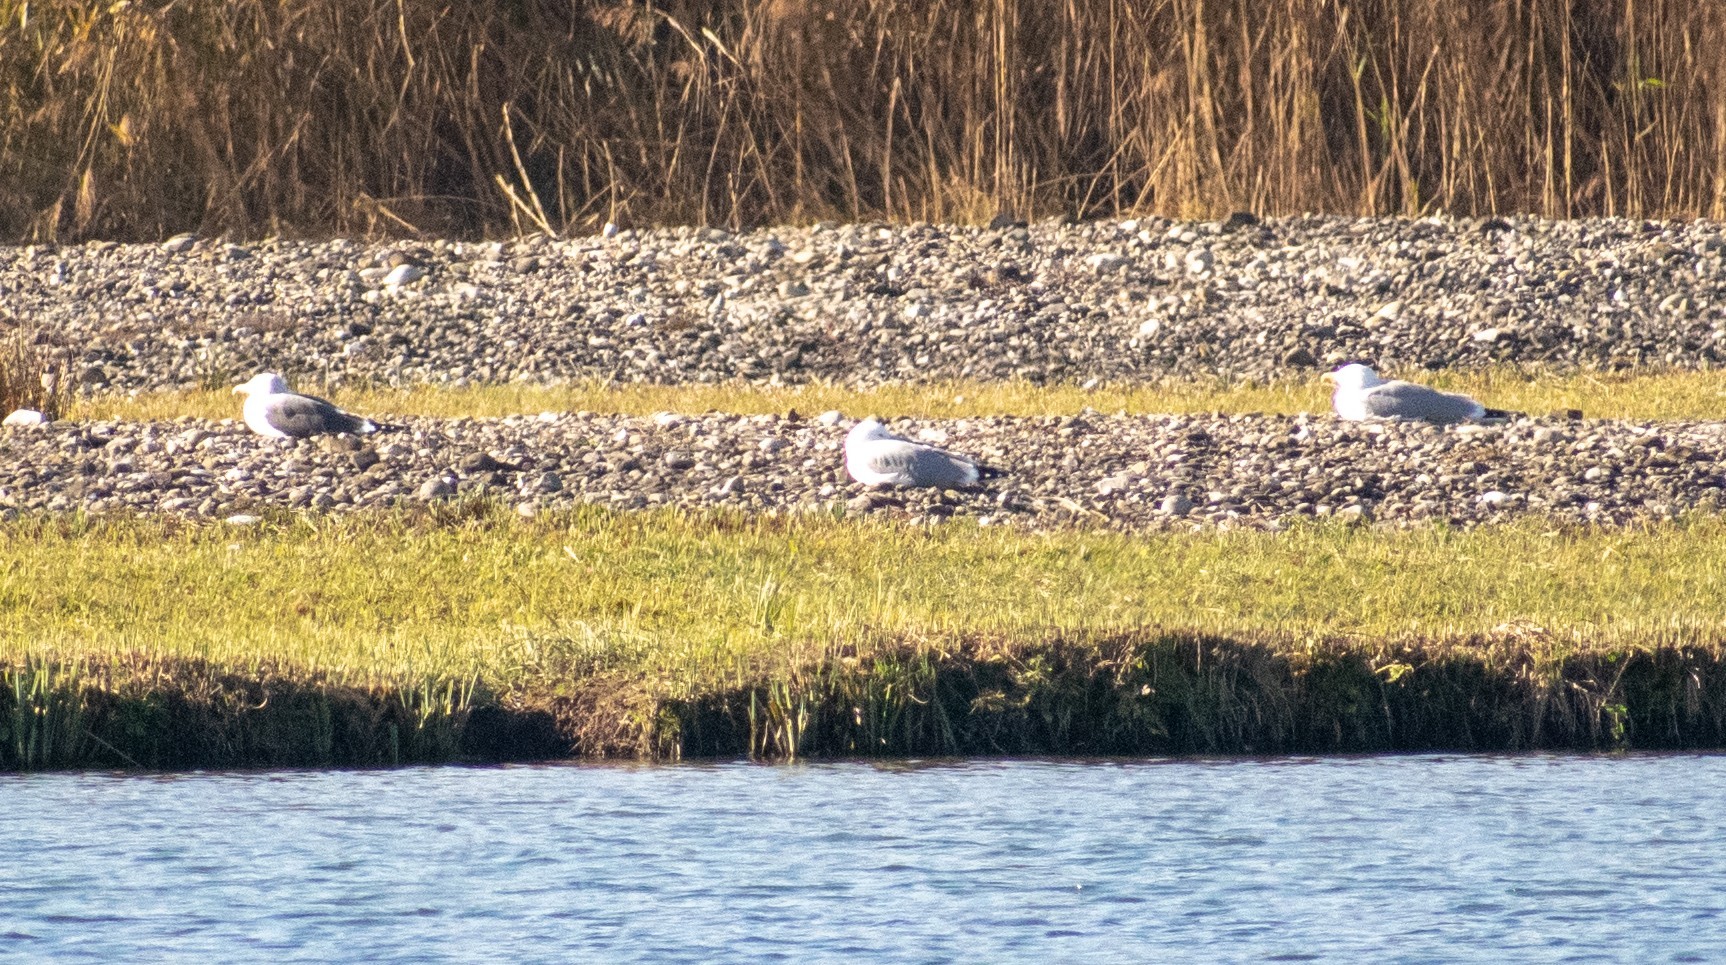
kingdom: Animalia
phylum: Chordata
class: Aves
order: Charadriiformes
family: Laridae
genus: Larus
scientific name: Larus fuscus
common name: Lesser black-backed gull
